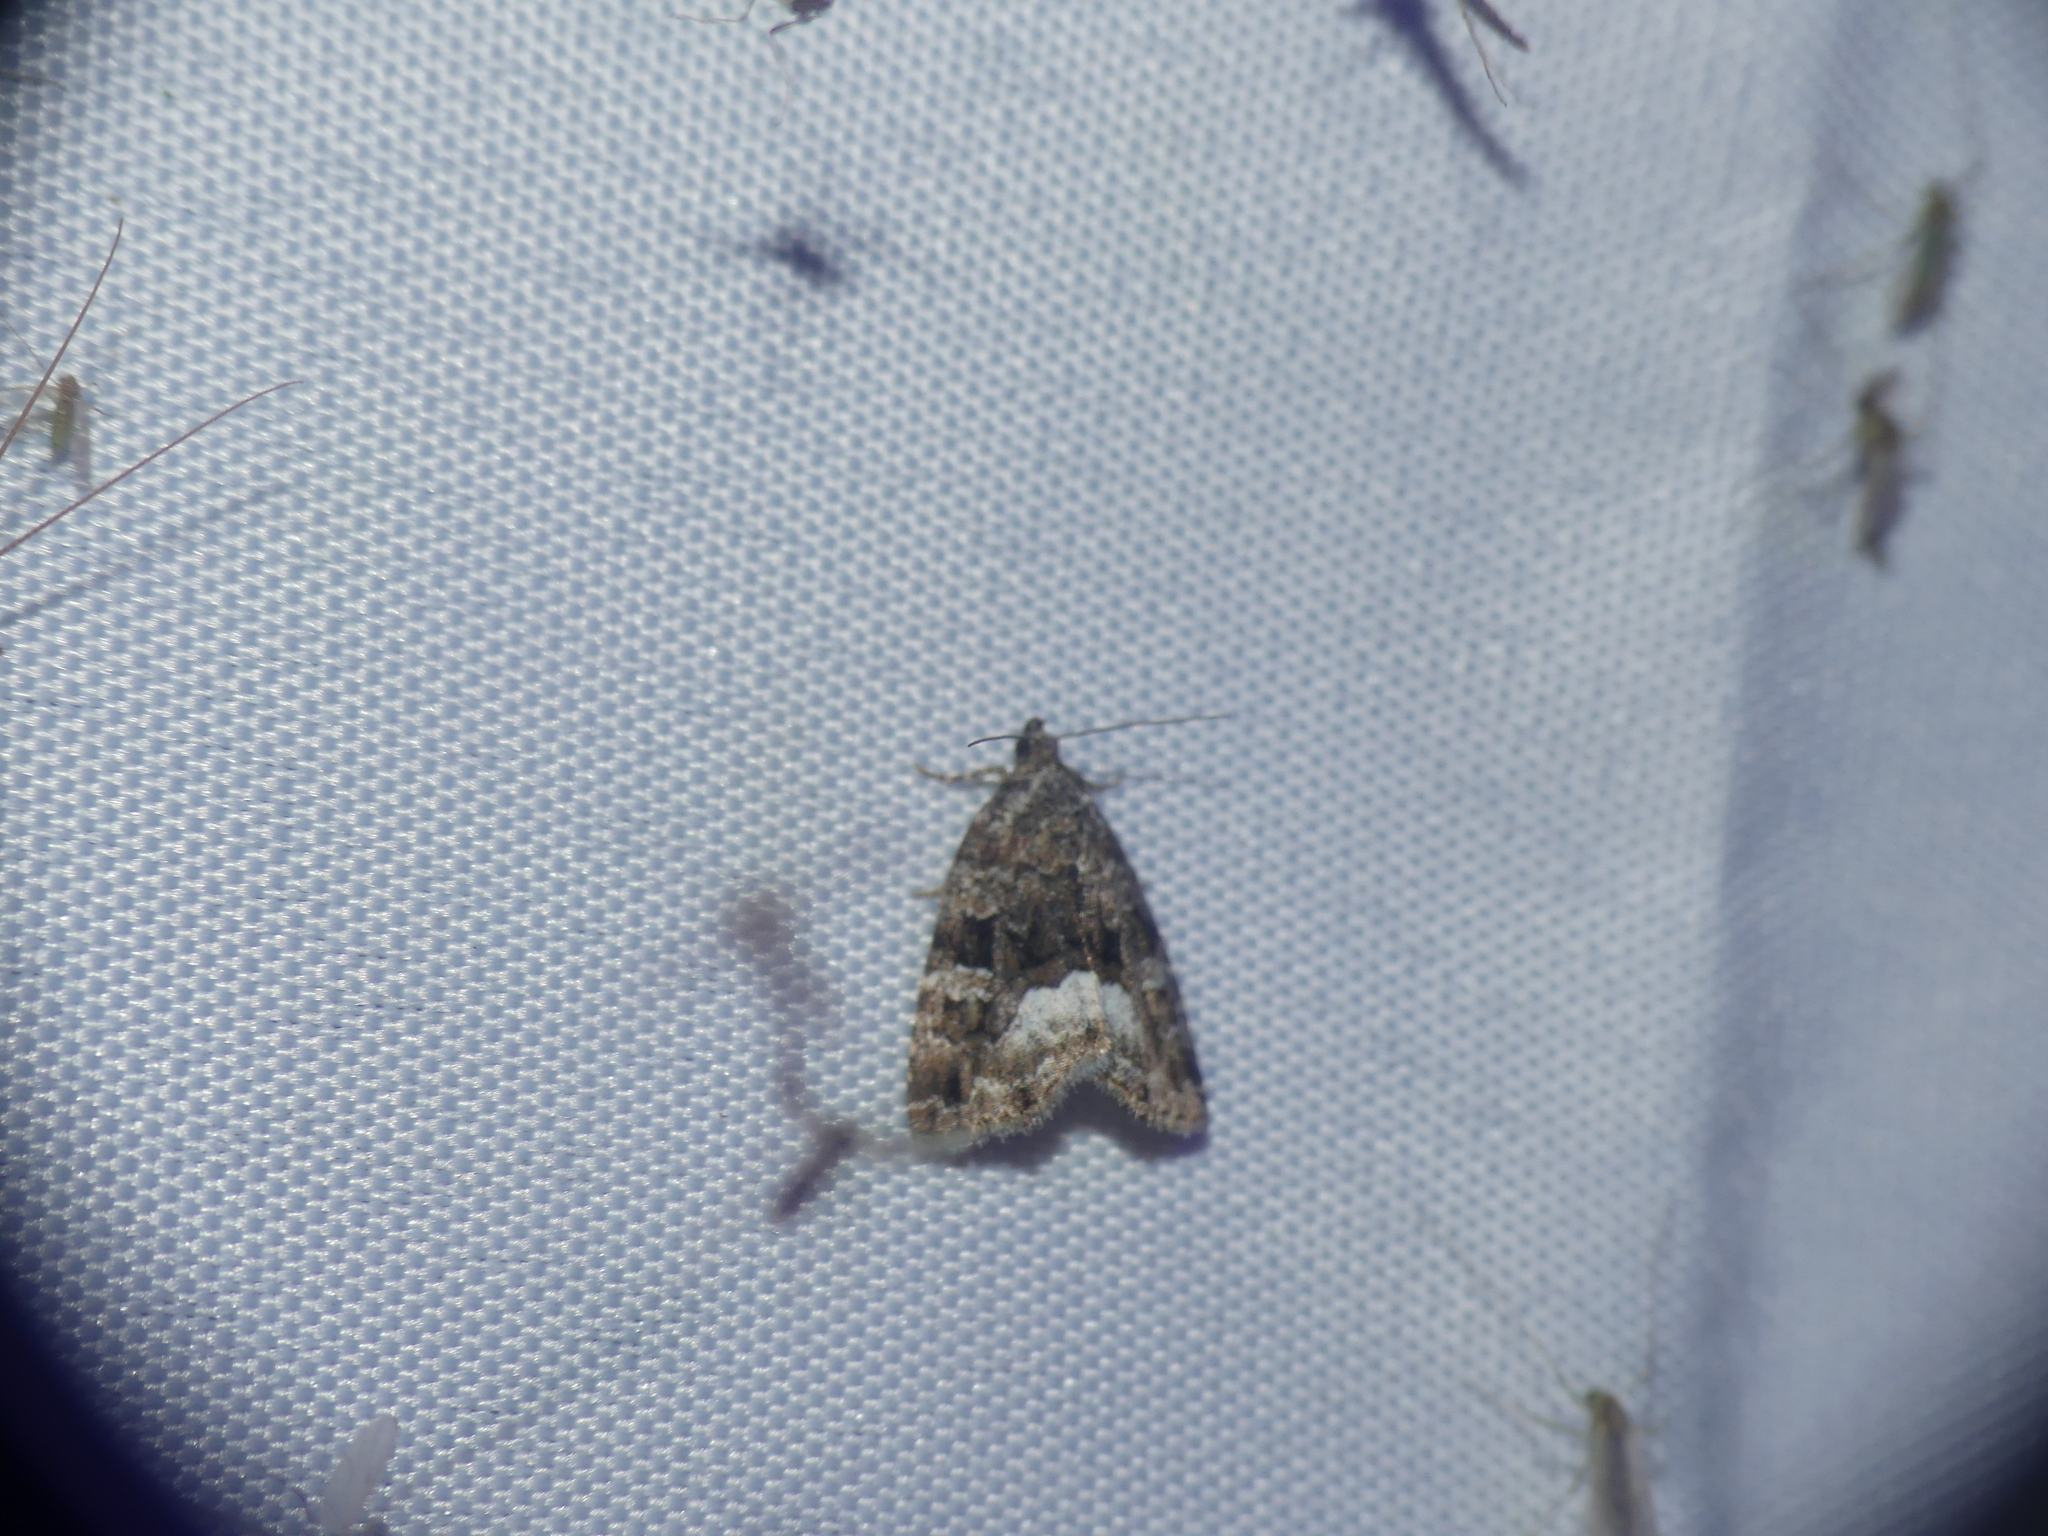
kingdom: Animalia
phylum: Arthropoda
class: Insecta
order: Lepidoptera
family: Noctuidae
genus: Deltote
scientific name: Deltote pygarga
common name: Marbled white spot
